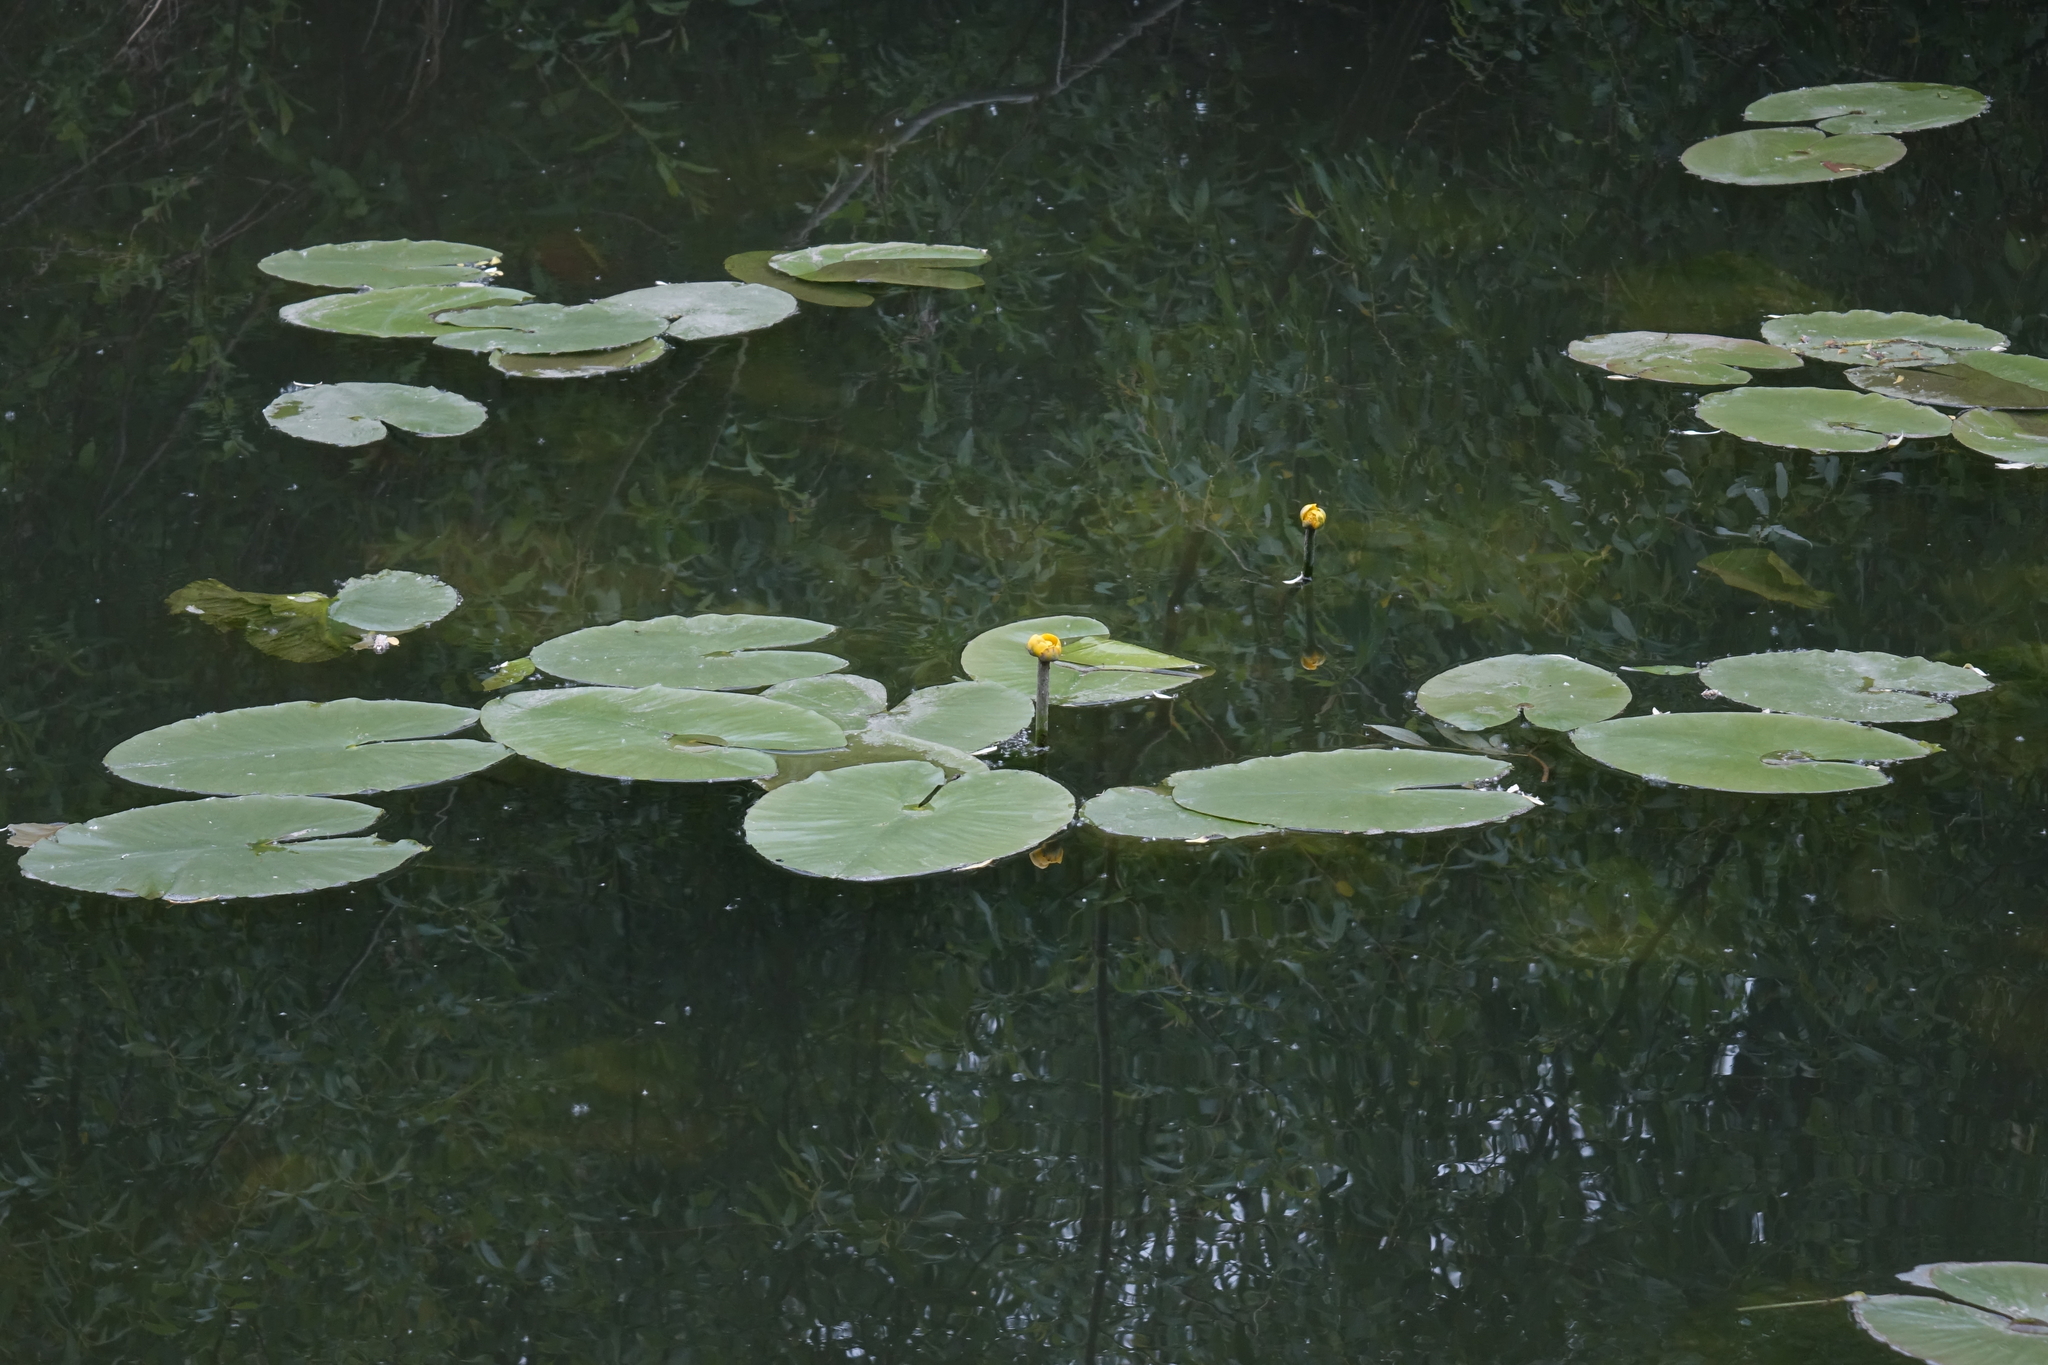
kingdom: Plantae
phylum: Tracheophyta
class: Magnoliopsida
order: Nymphaeales
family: Nymphaeaceae
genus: Nuphar
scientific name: Nuphar lutea
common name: Yellow water-lily
